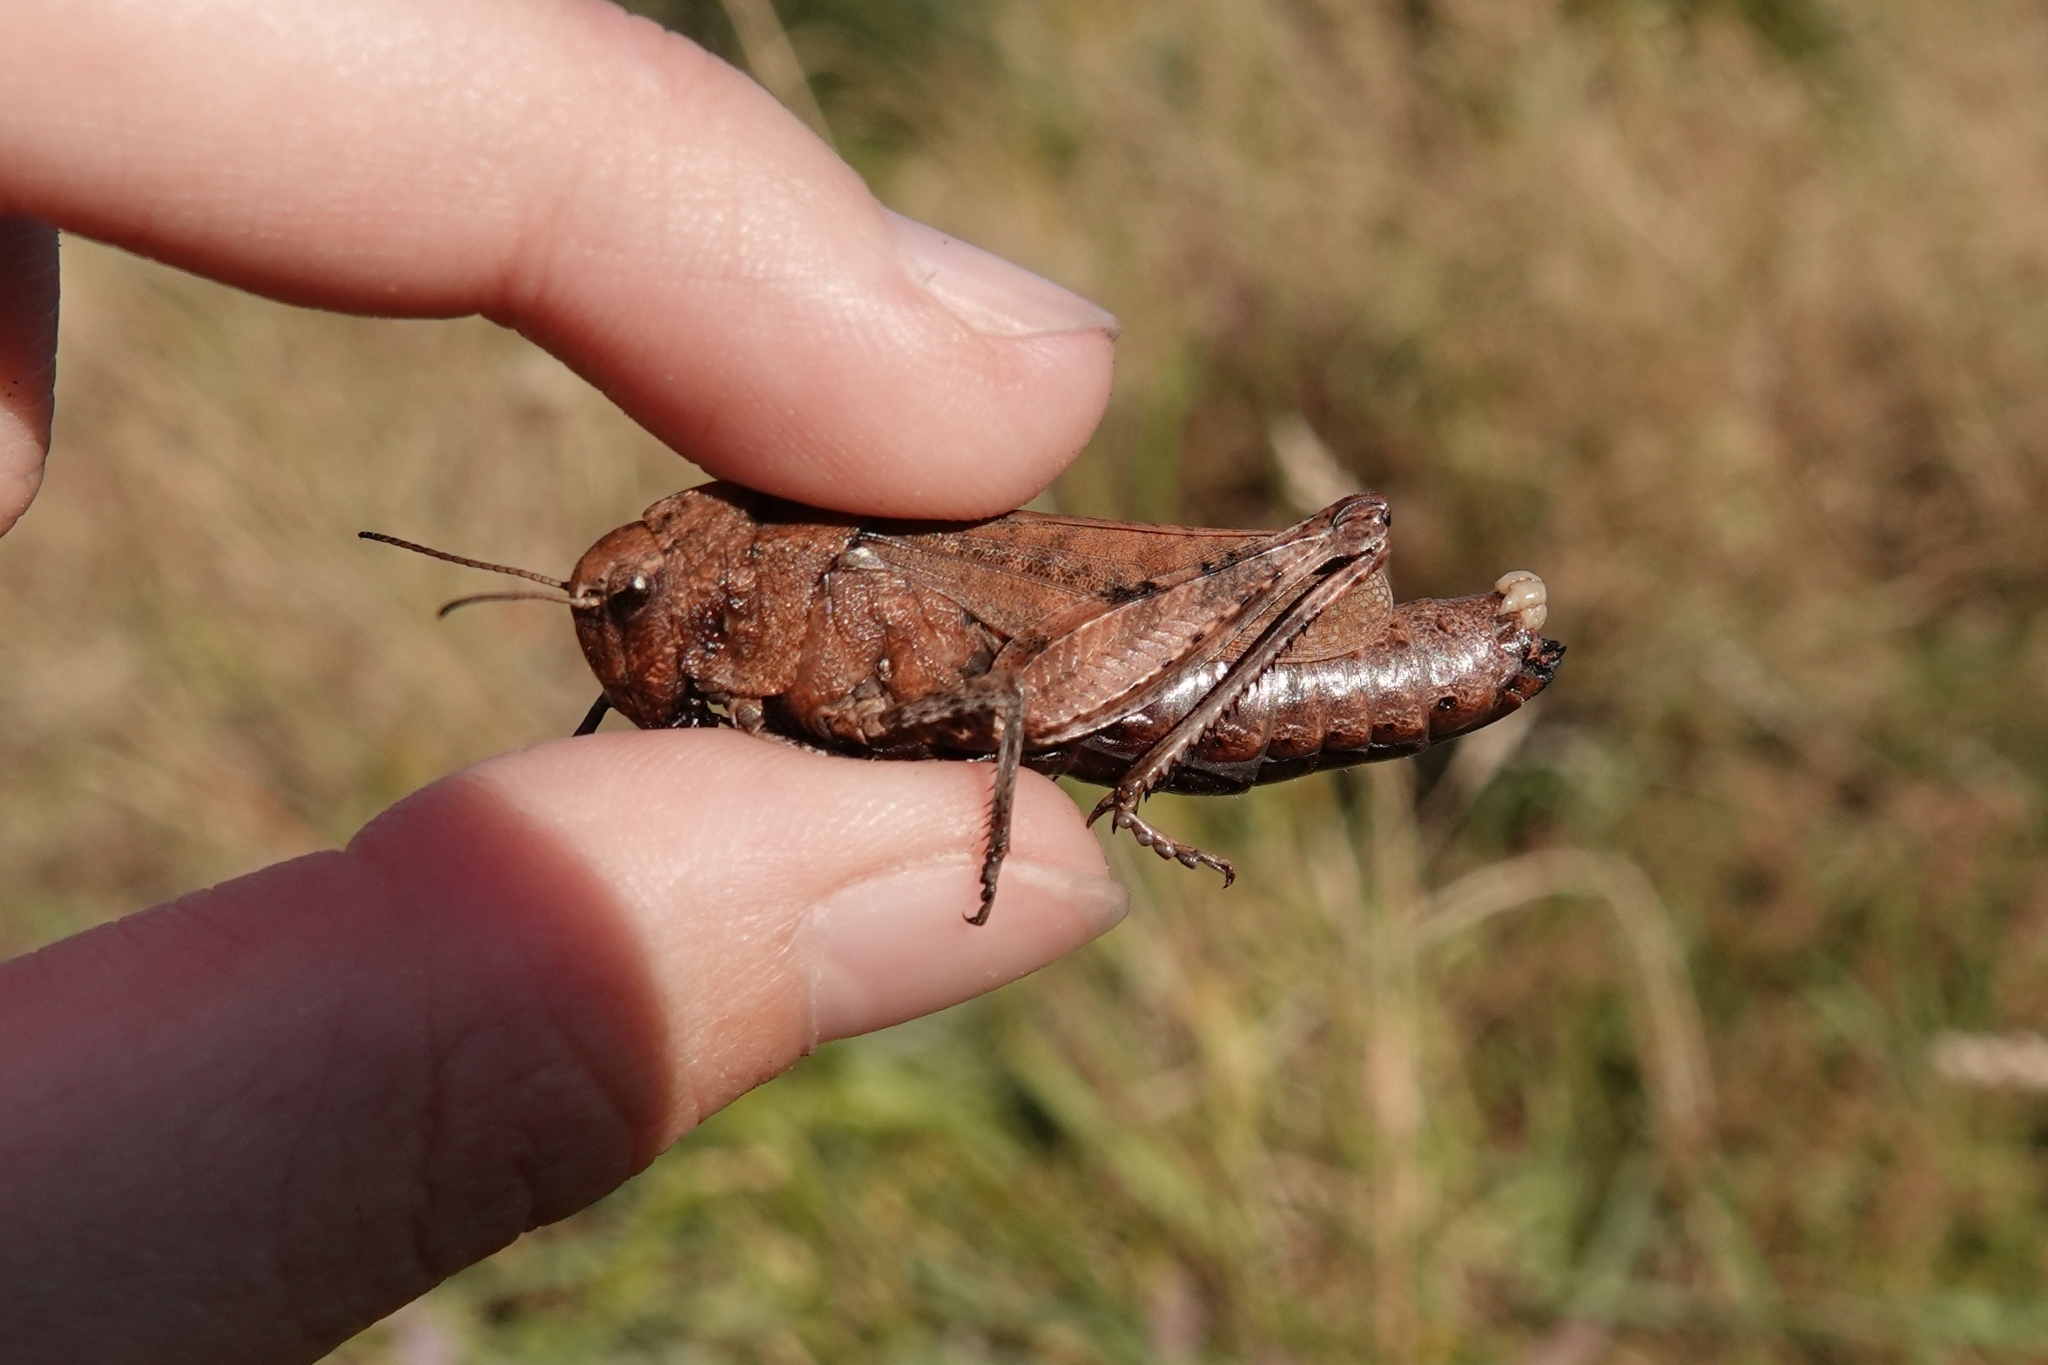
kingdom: Animalia
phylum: Arthropoda
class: Insecta
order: Orthoptera
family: Acrididae
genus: Psophus
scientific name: Psophus stridulus
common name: Rattle grasshopper
